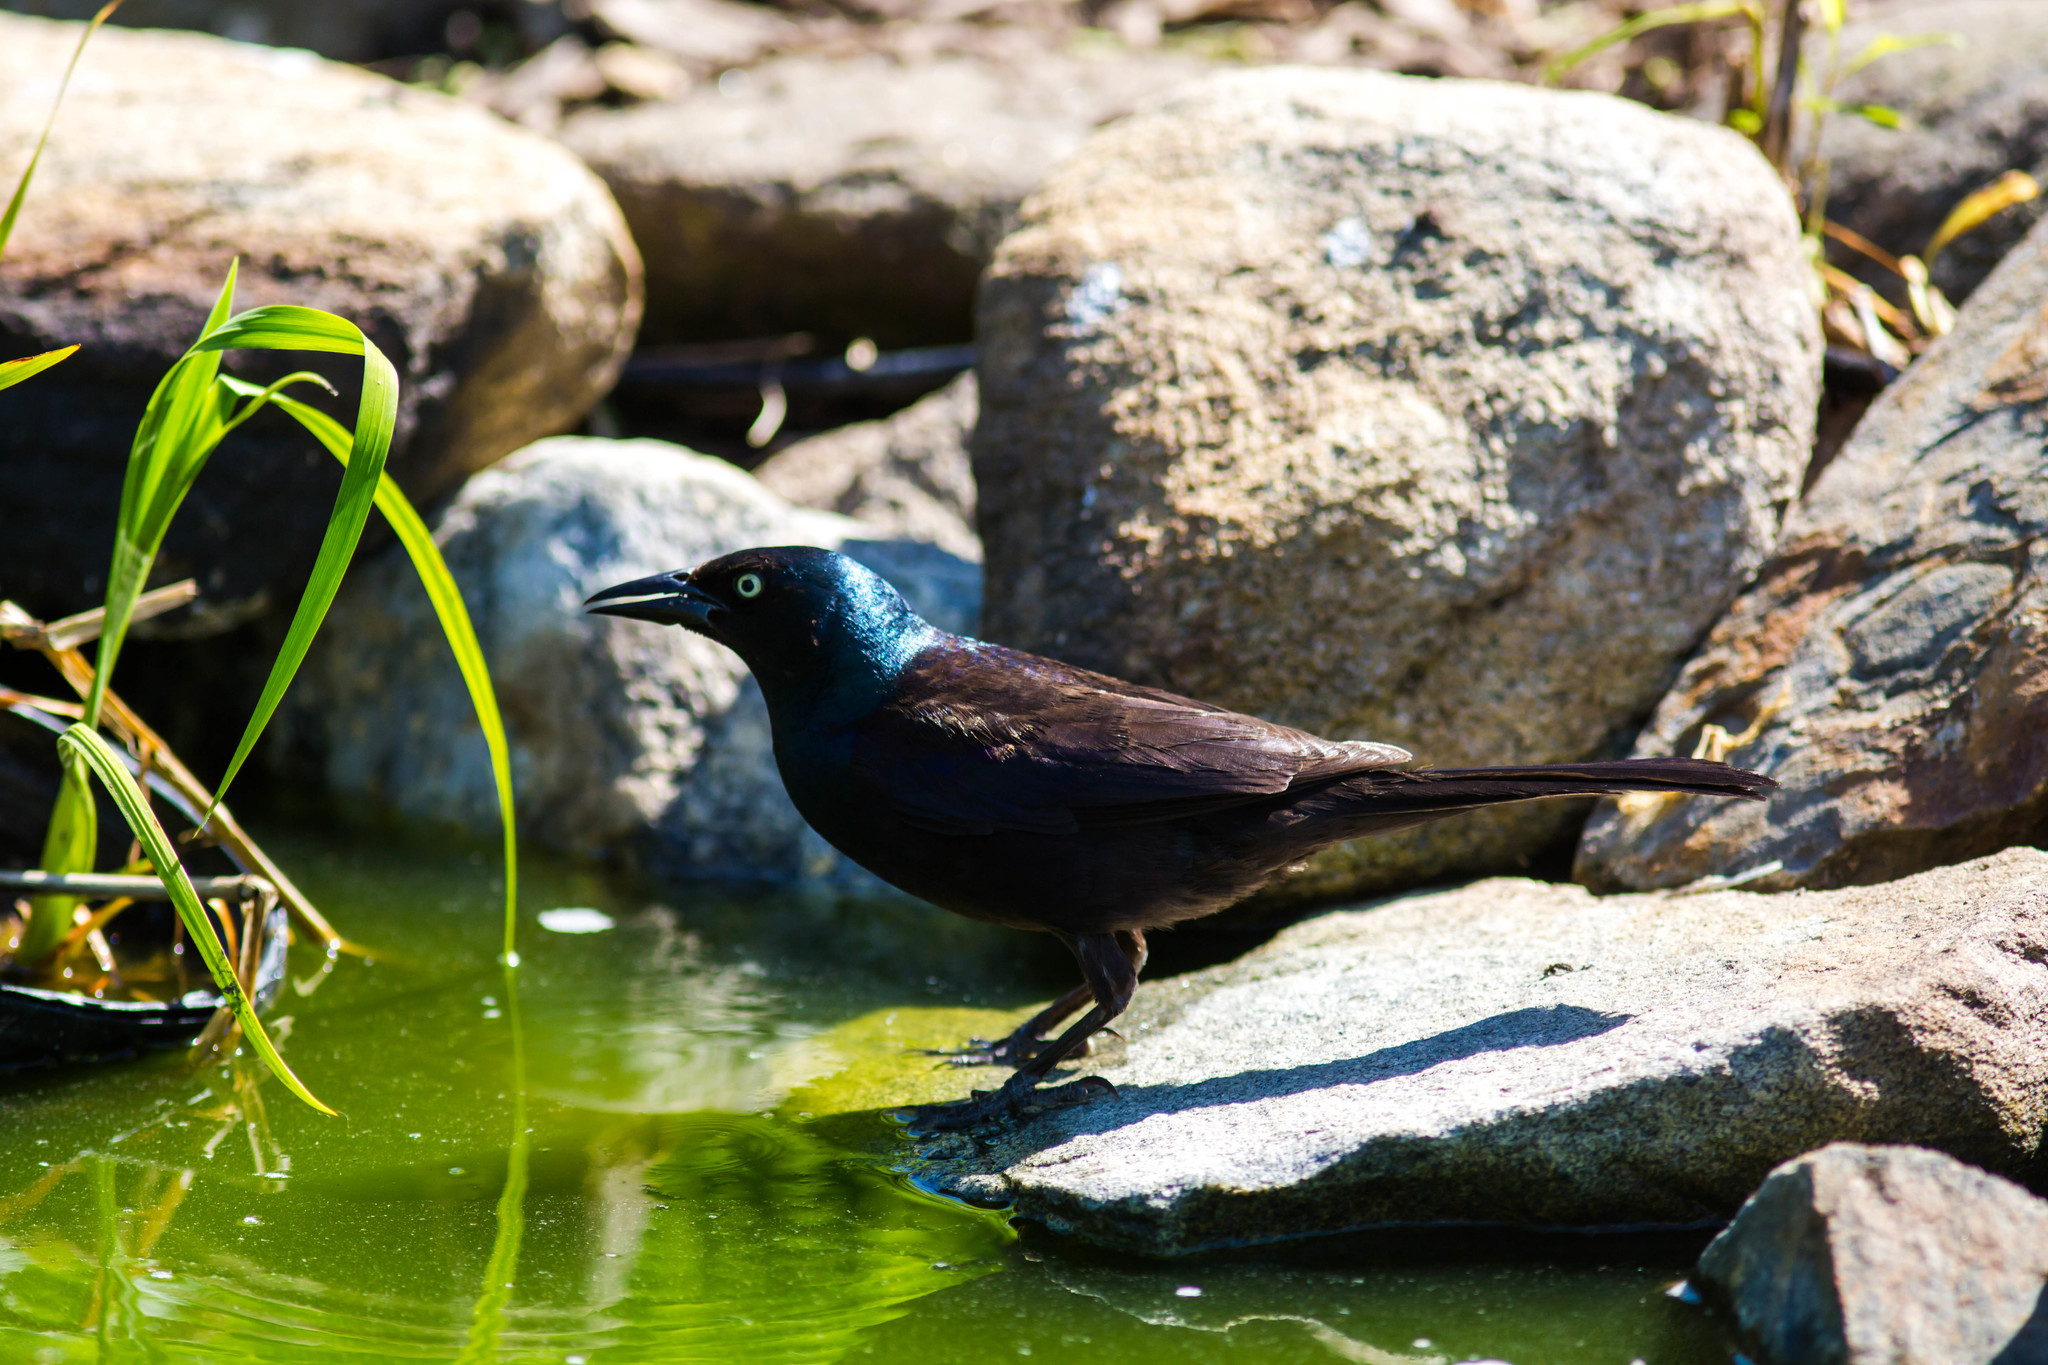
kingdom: Animalia
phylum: Chordata
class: Aves
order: Passeriformes
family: Icteridae
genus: Quiscalus
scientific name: Quiscalus quiscula
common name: Common grackle
